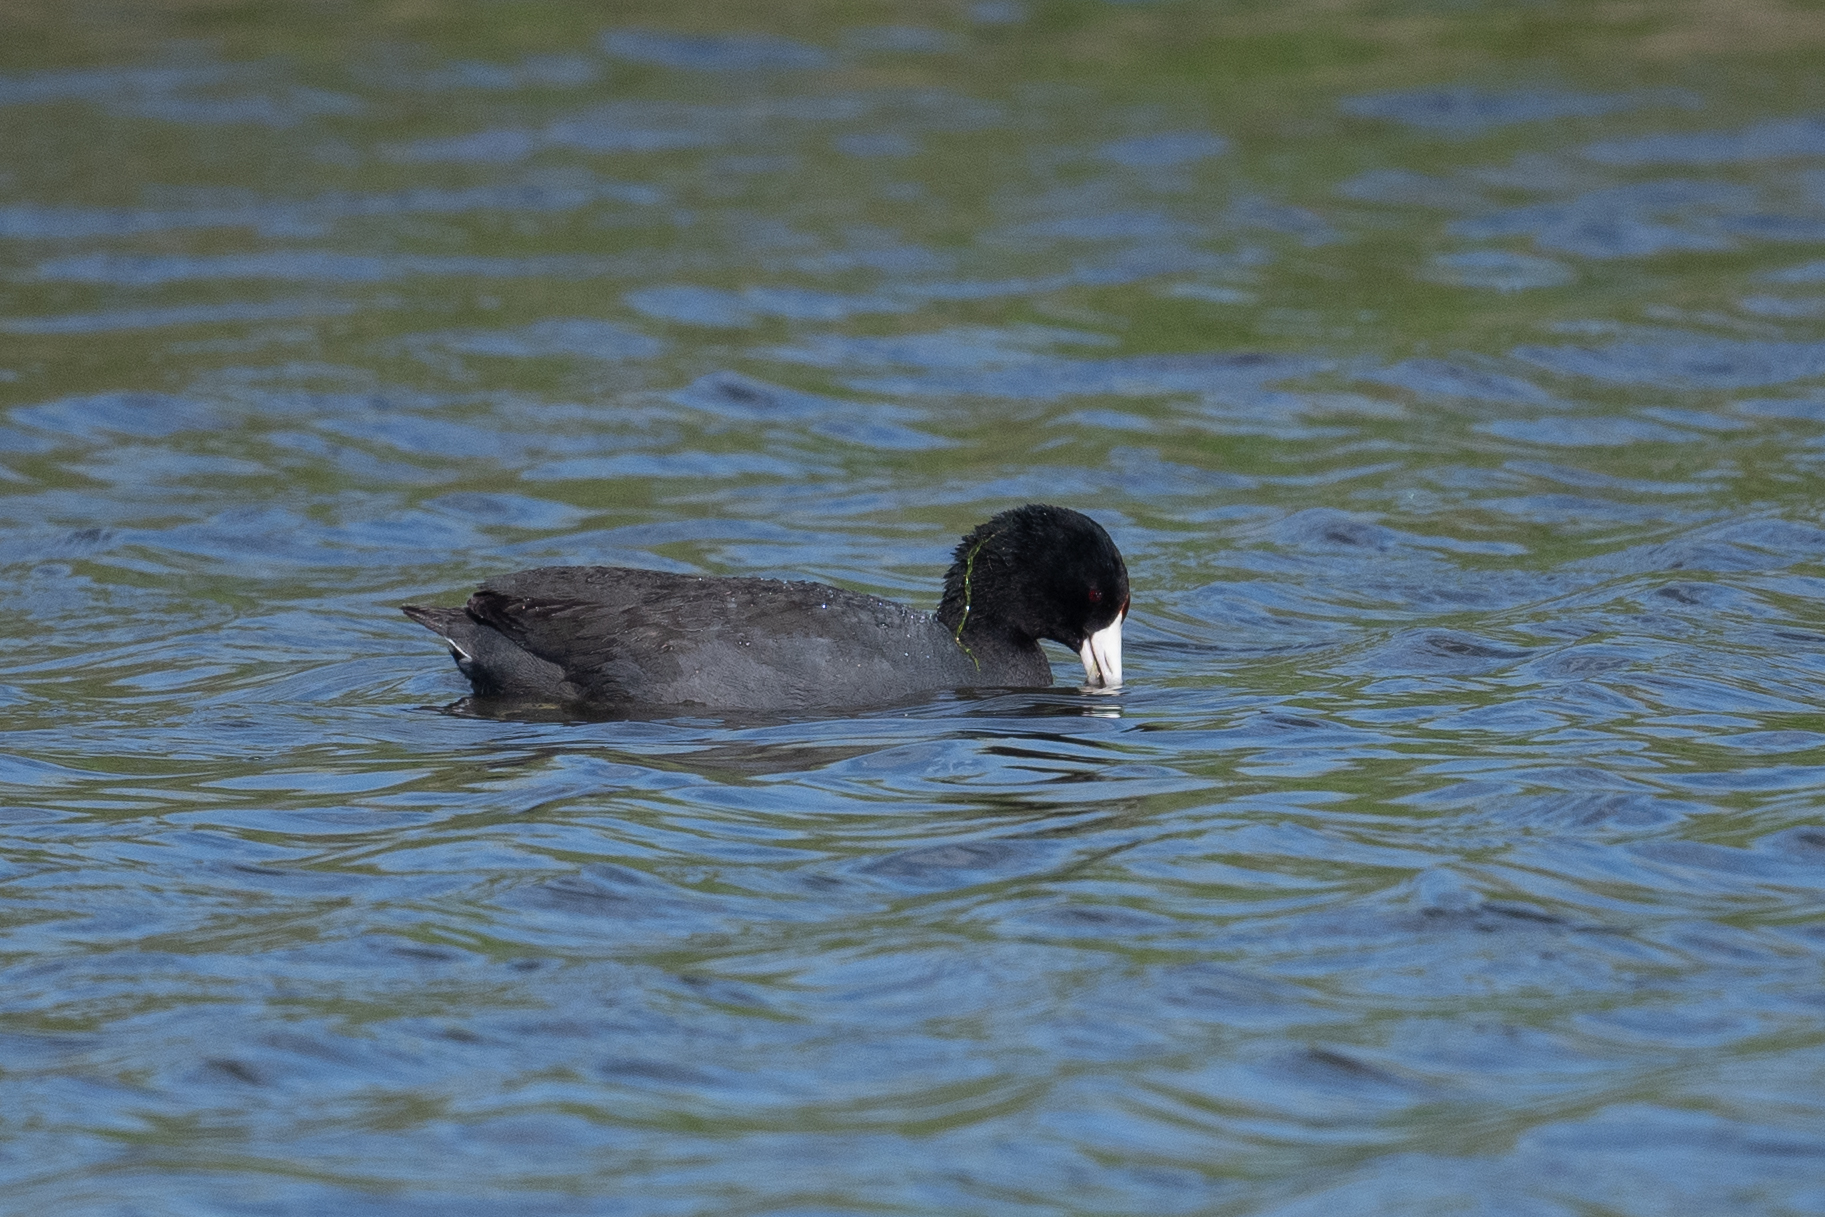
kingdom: Animalia
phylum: Chordata
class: Aves
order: Gruiformes
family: Rallidae
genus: Fulica
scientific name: Fulica americana
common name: American coot
